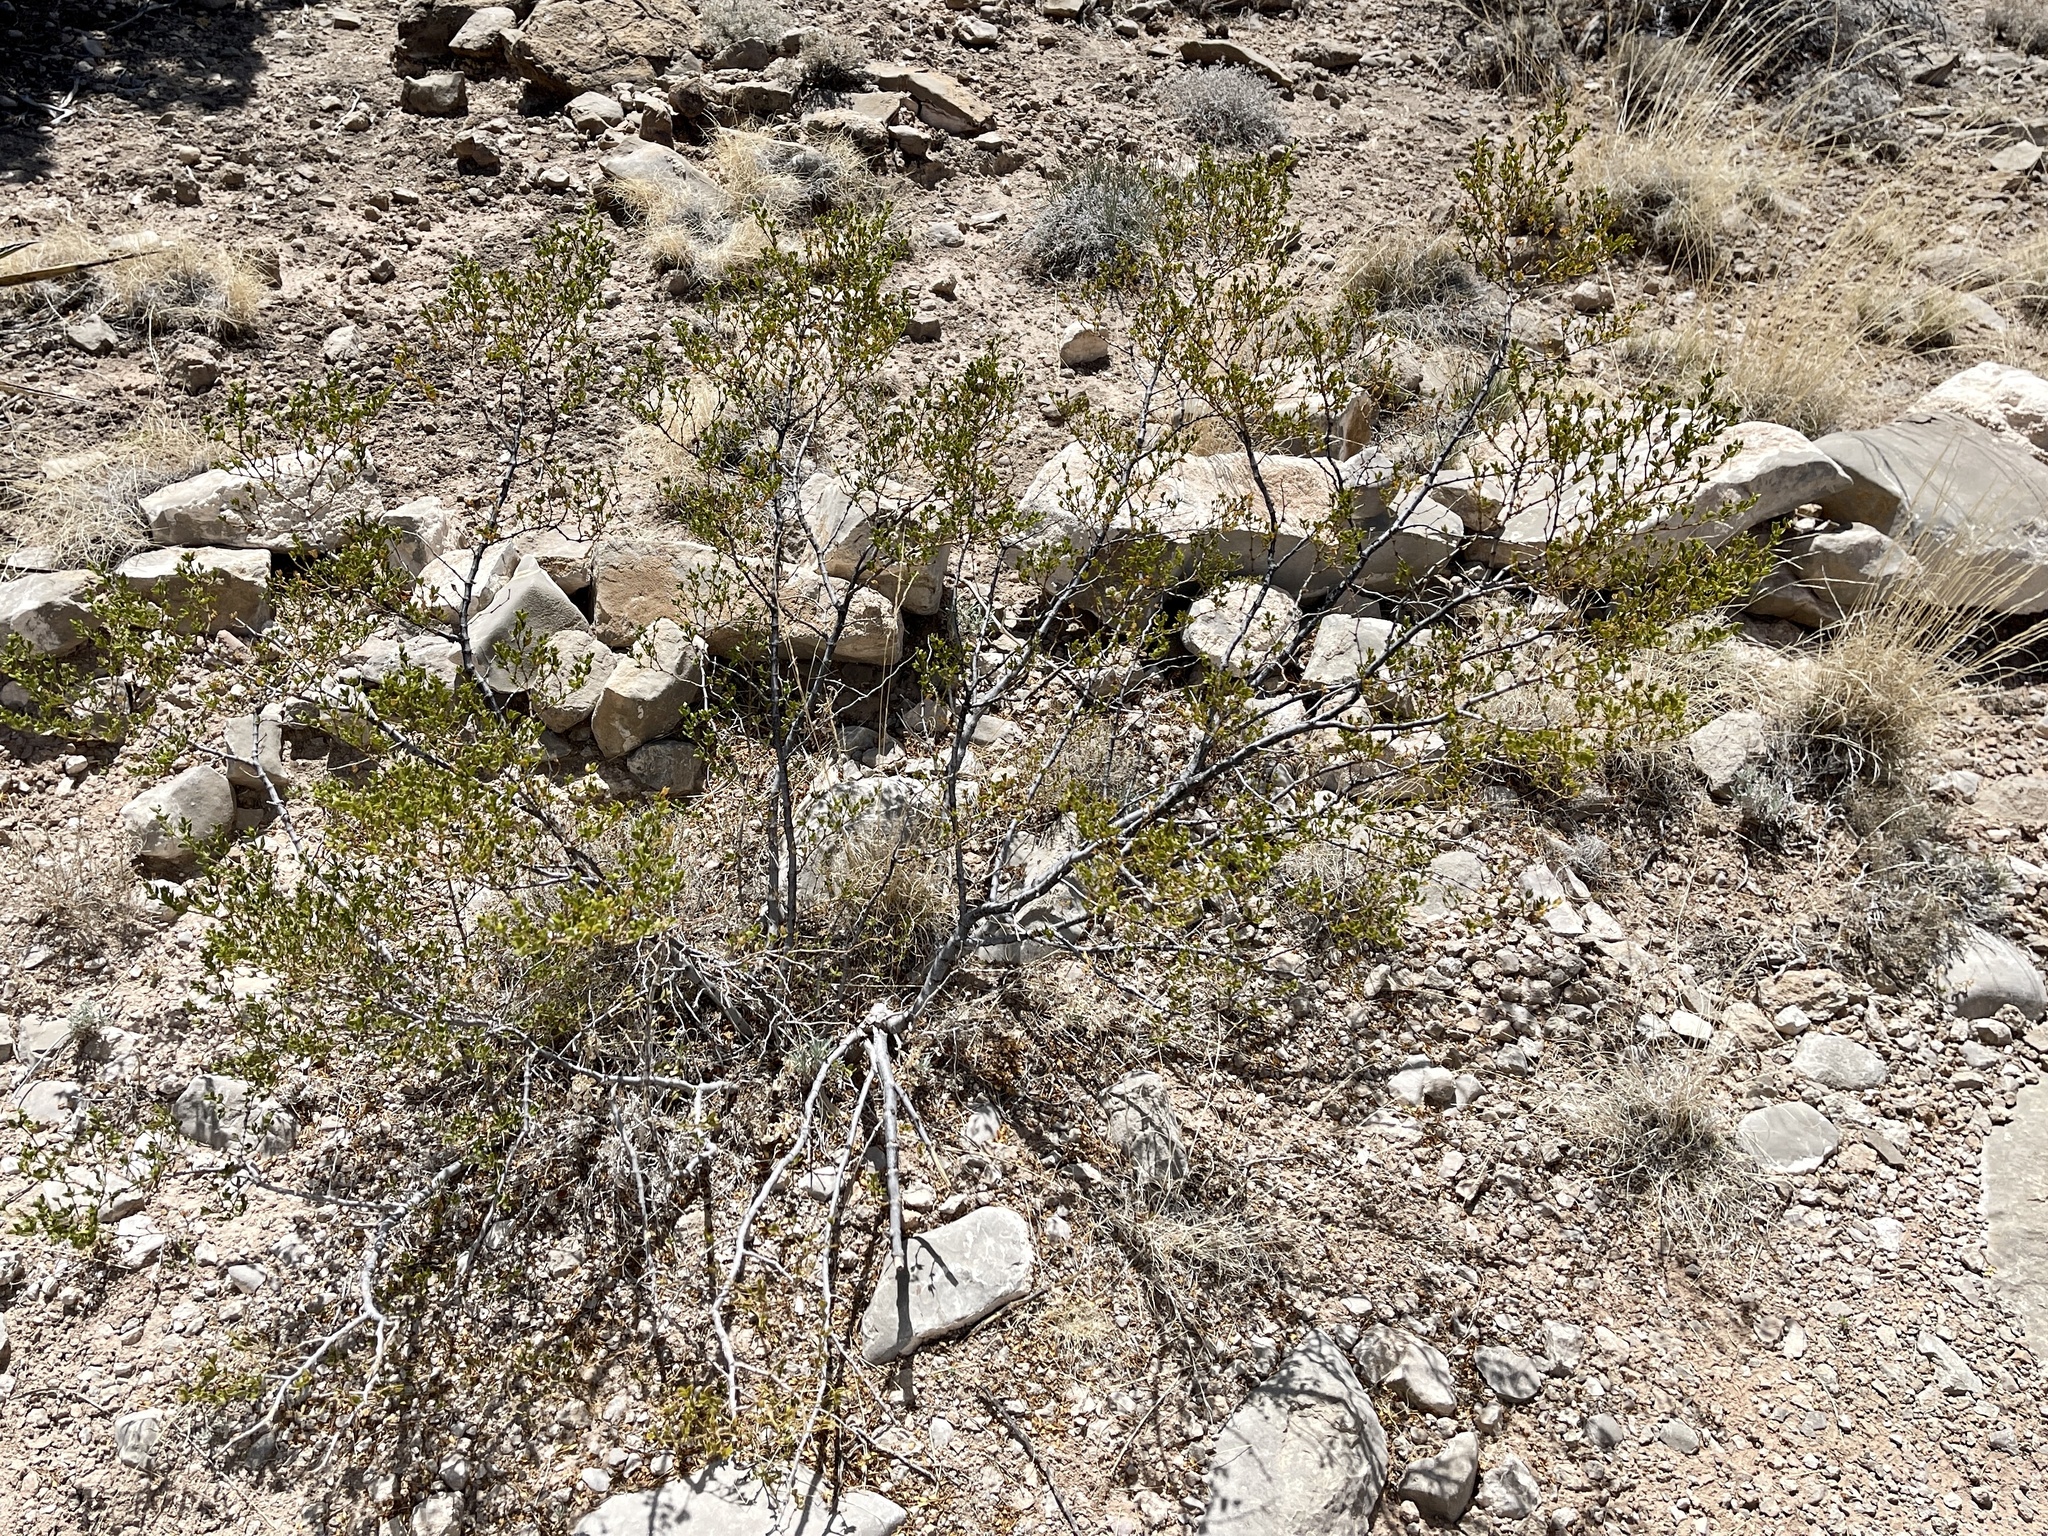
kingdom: Plantae
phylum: Tracheophyta
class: Magnoliopsida
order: Zygophyllales
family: Zygophyllaceae
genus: Larrea
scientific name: Larrea tridentata
